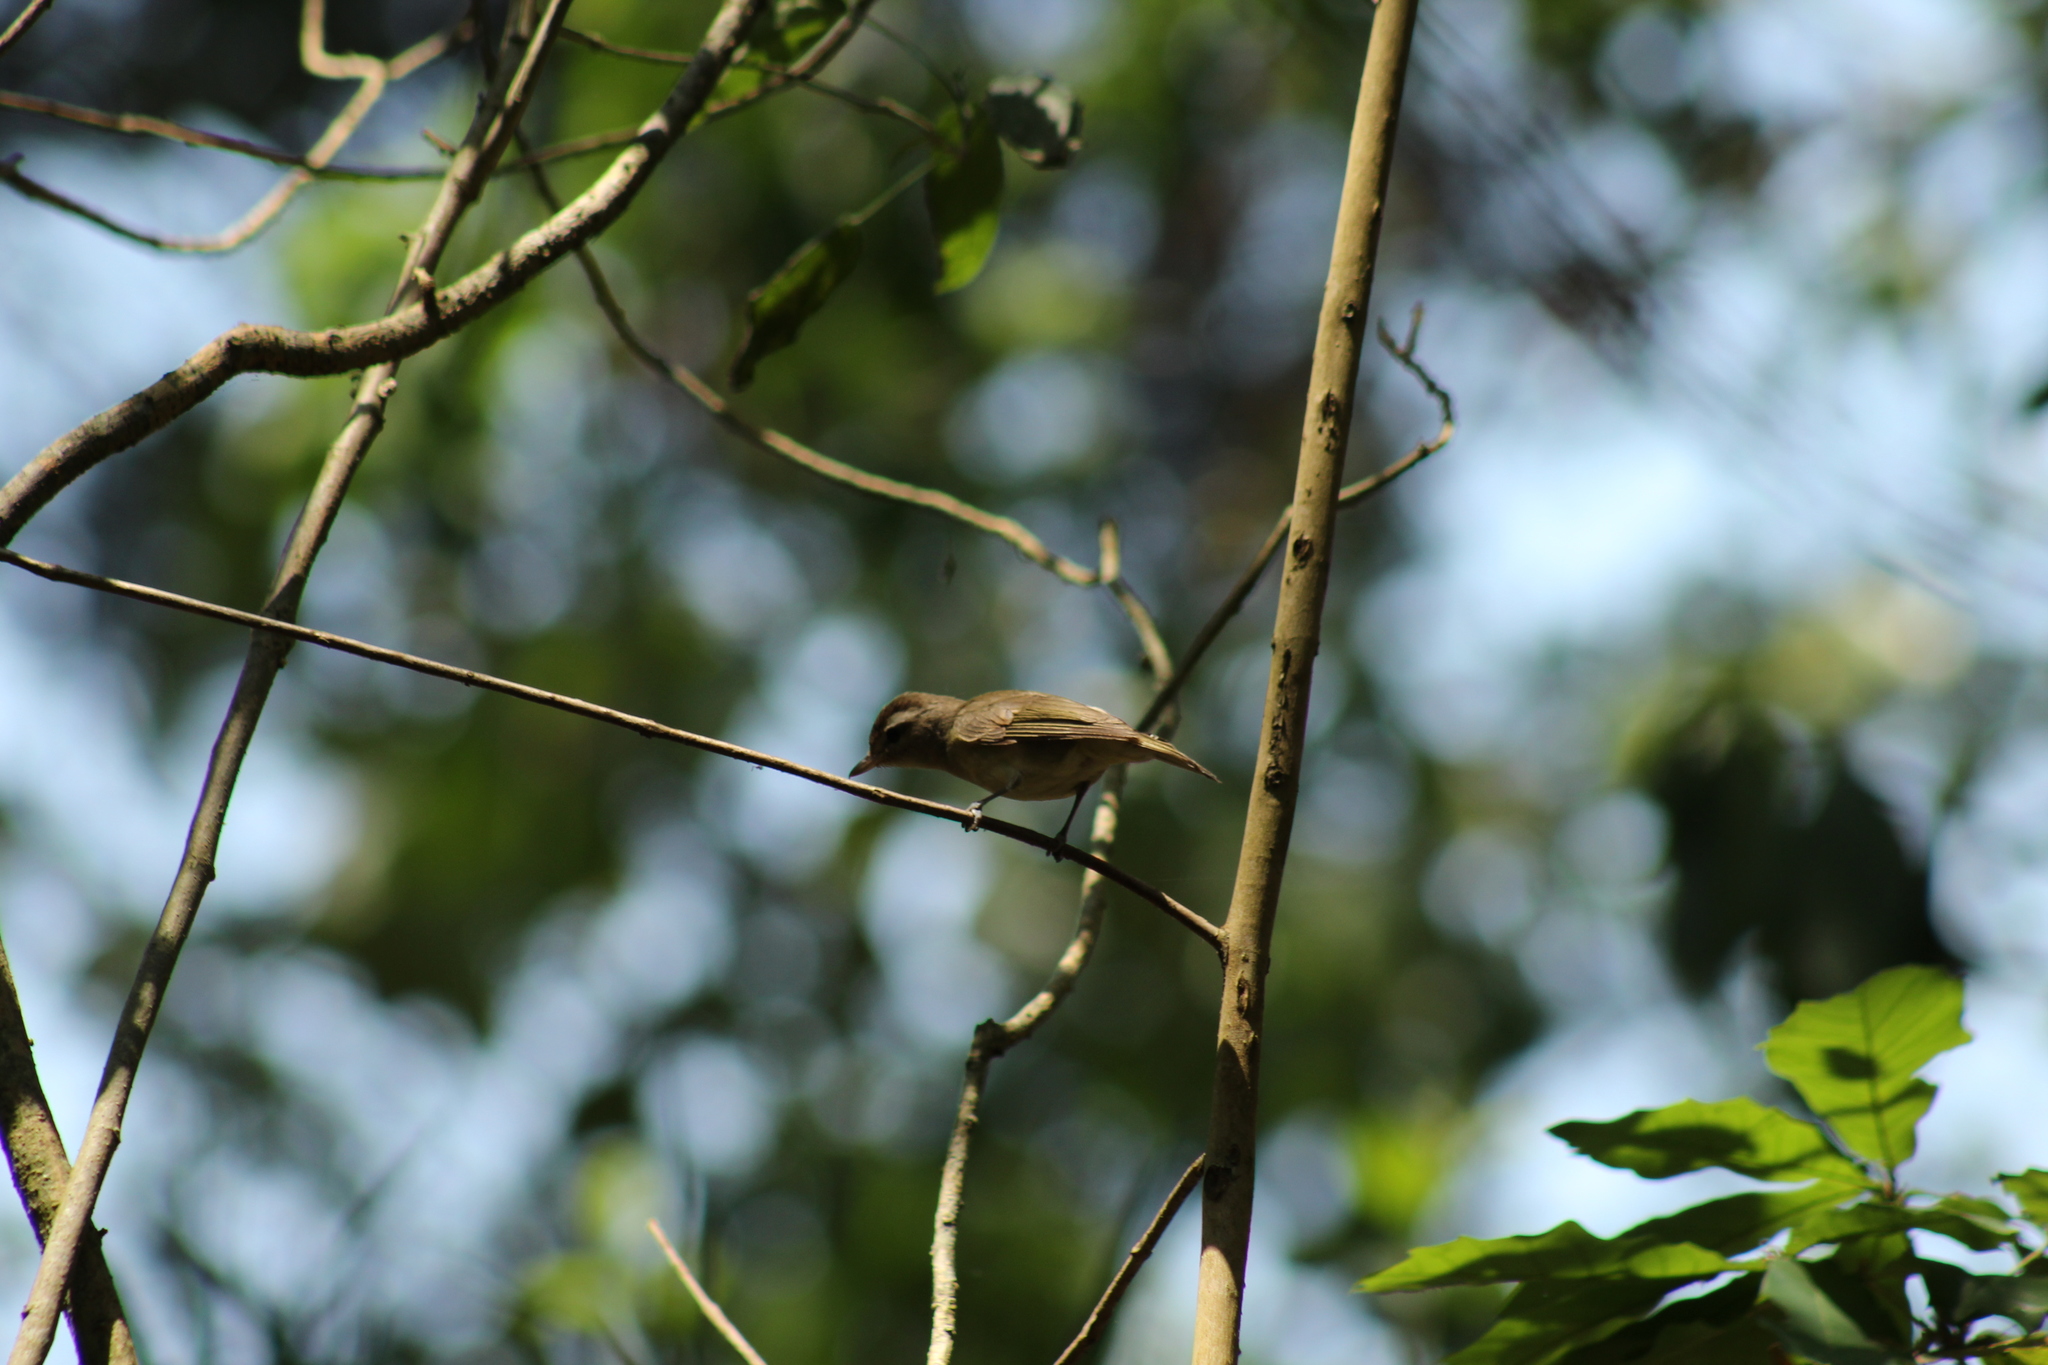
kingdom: Animalia
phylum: Chordata
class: Aves
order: Passeriformes
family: Vireonidae
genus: Vireo
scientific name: Vireo leucophrys
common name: Brown-capped vireo
